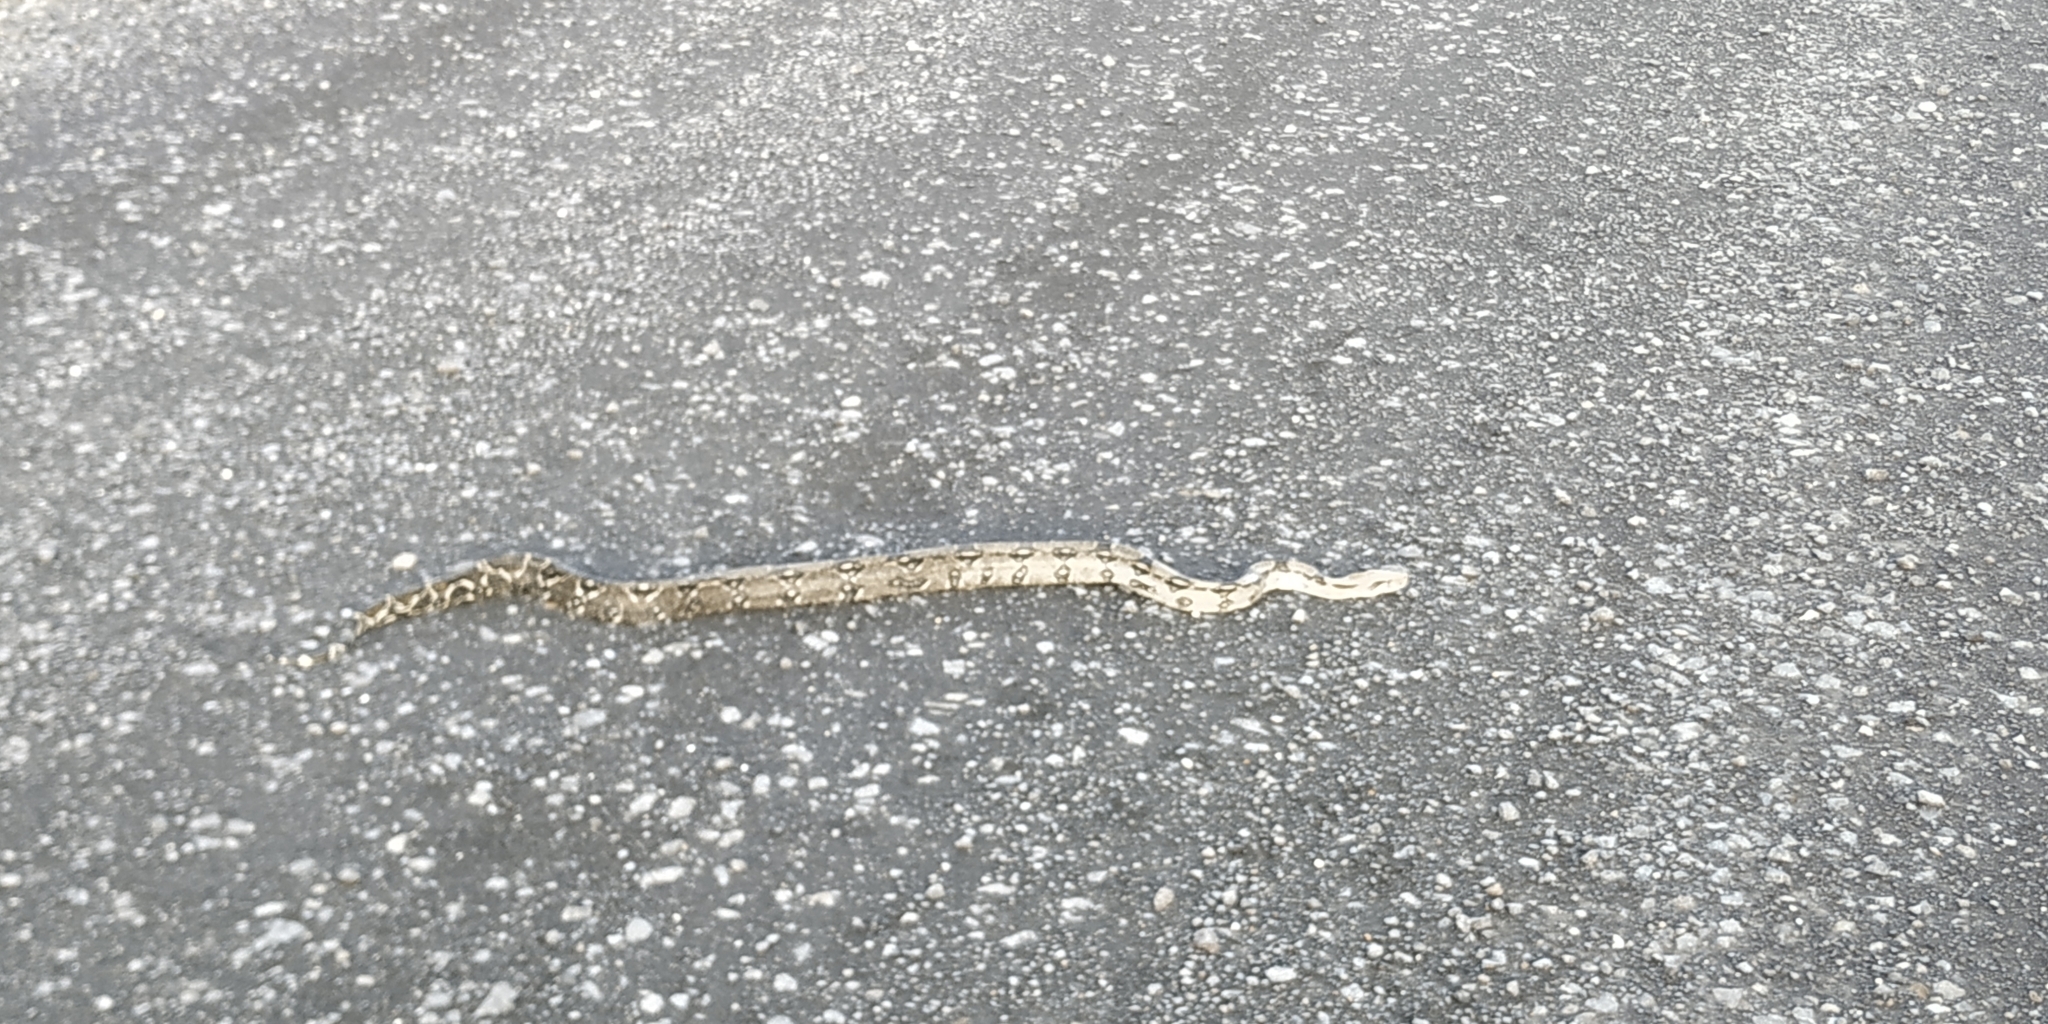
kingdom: Animalia
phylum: Chordata
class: Squamata
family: Boidae
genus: Boa
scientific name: Boa imperator
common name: Central american boa
